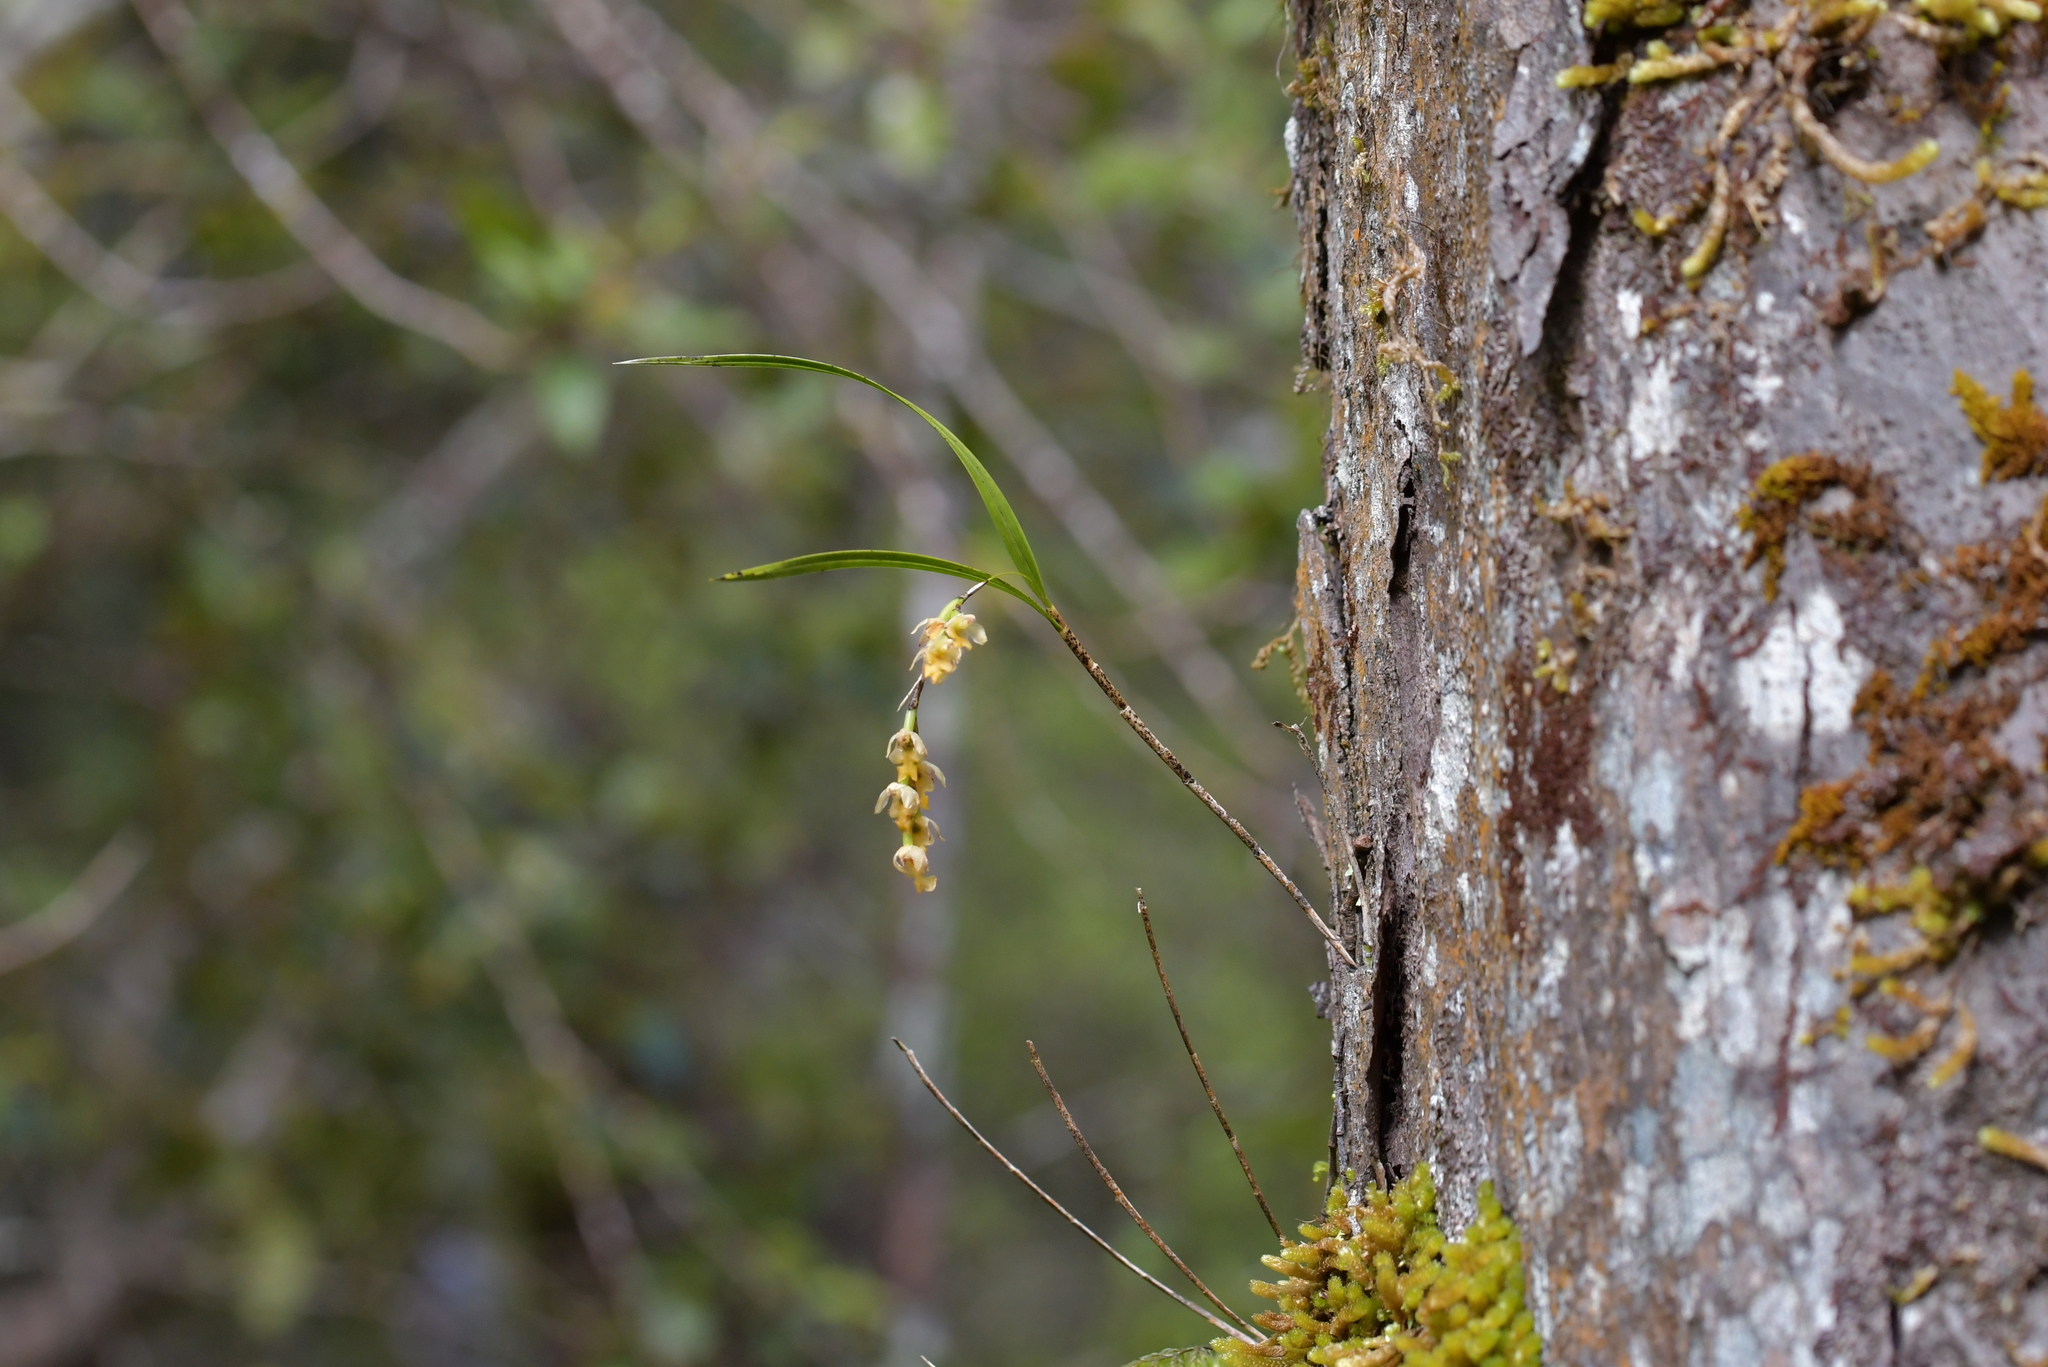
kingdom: Plantae
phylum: Tracheophyta
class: Liliopsida
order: Asparagales
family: Orchidaceae
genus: Earina
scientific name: Earina mucronata
